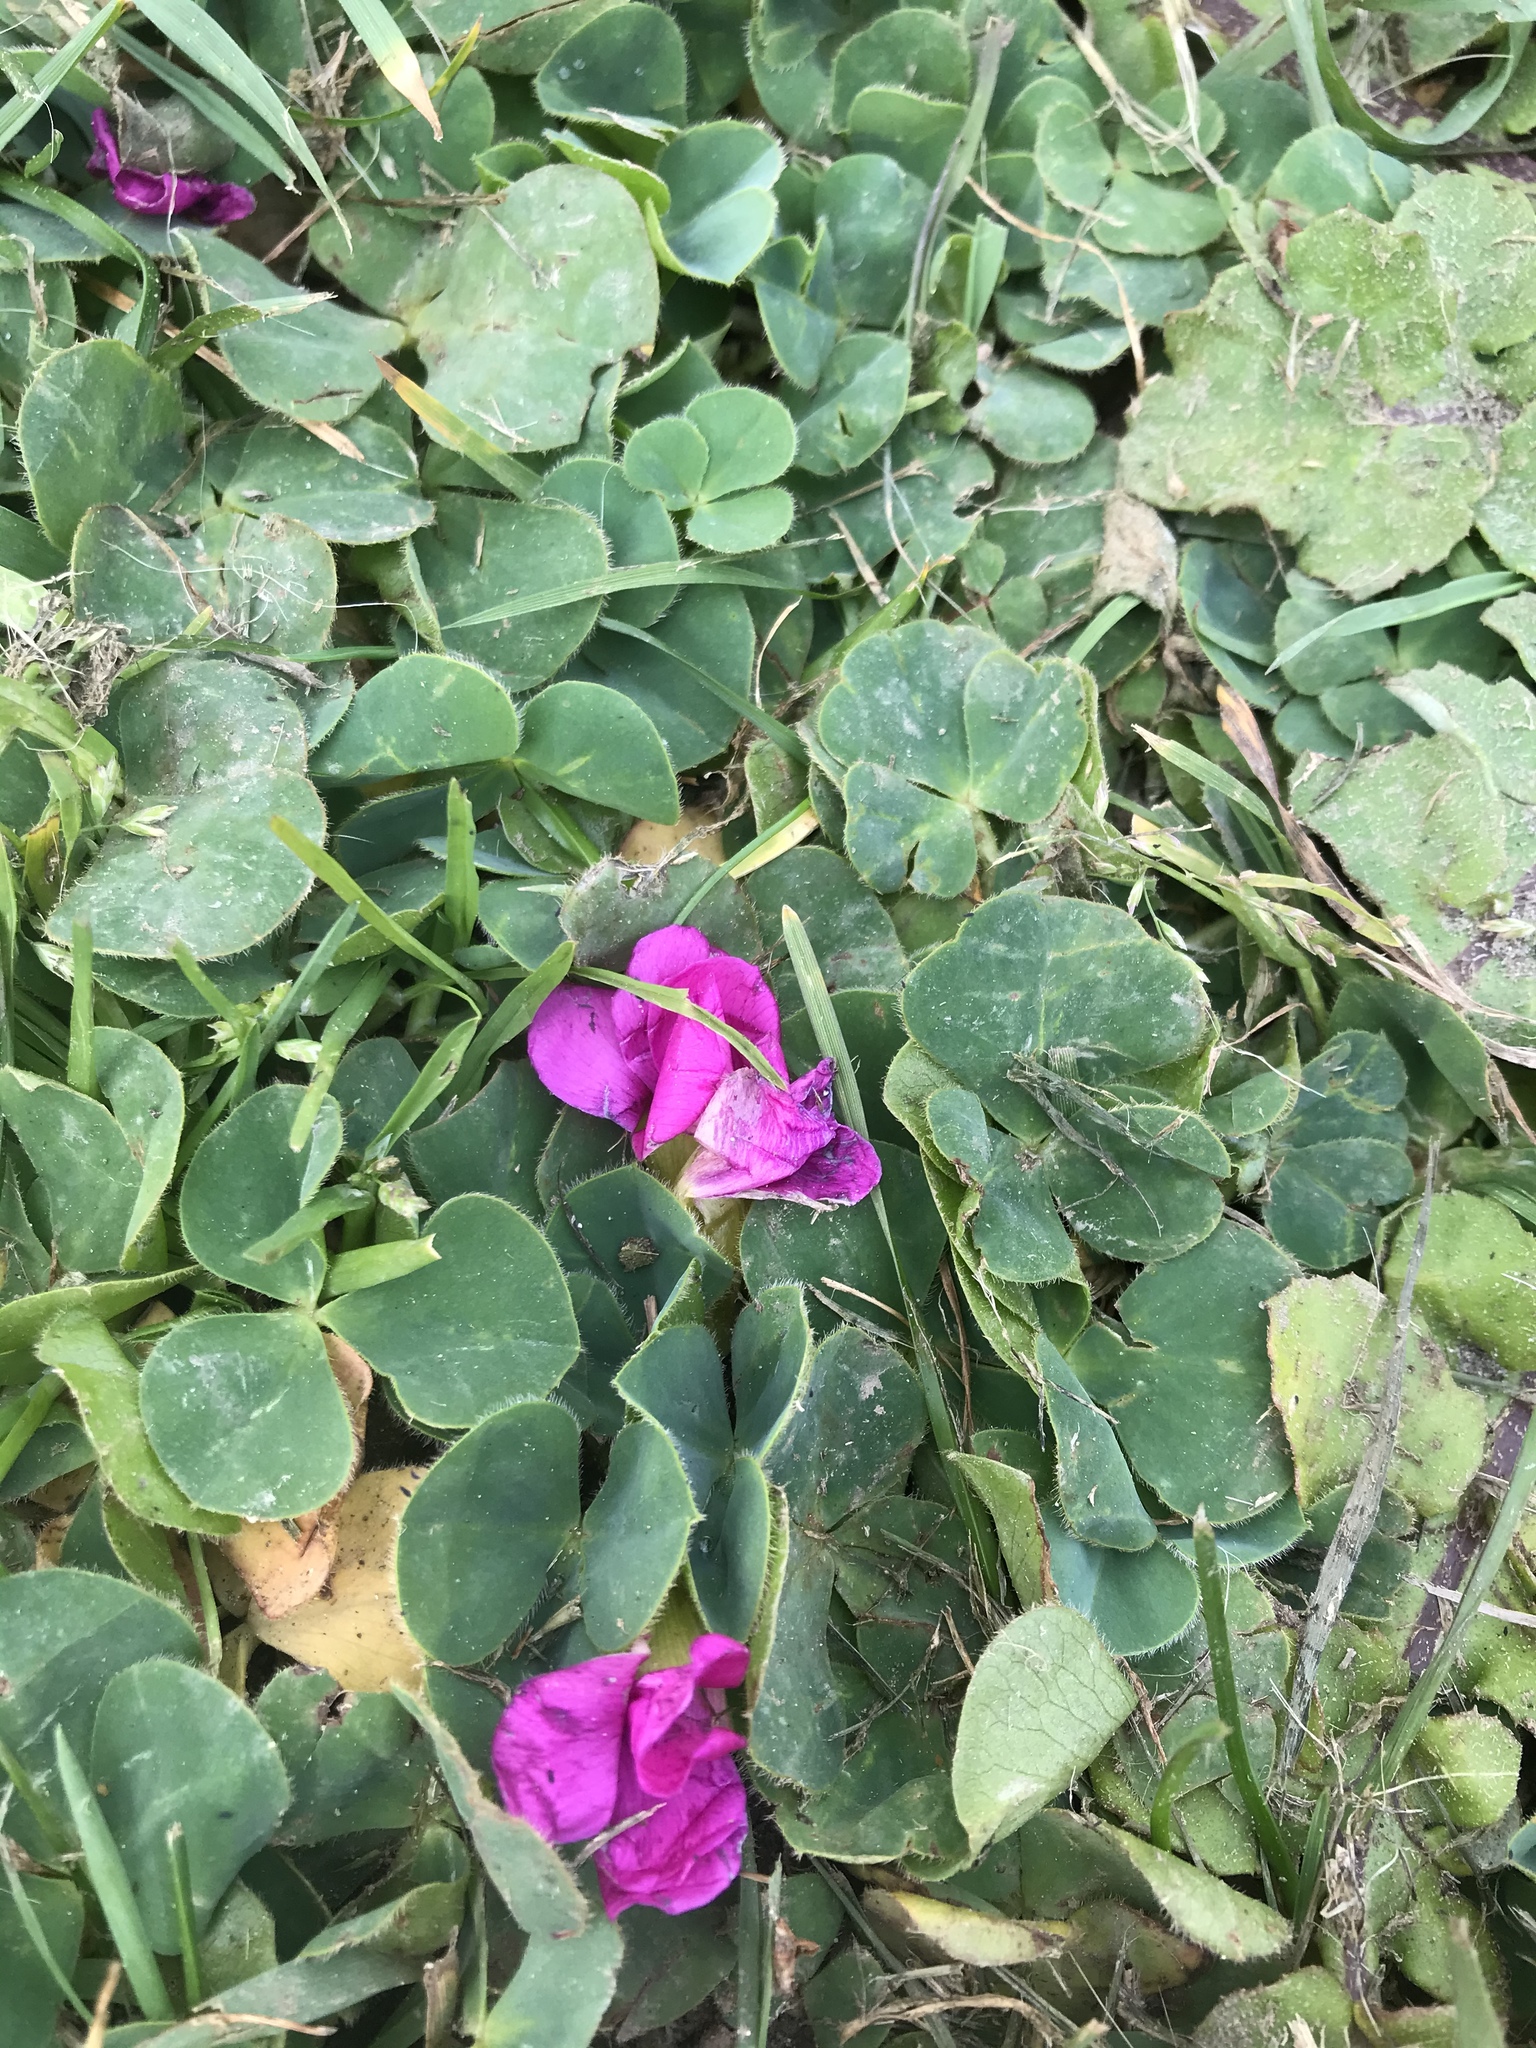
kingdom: Plantae
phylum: Tracheophyta
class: Magnoliopsida
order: Oxalidales
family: Oxalidaceae
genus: Oxalis
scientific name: Oxalis purpurea
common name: Purple woodsorrel
